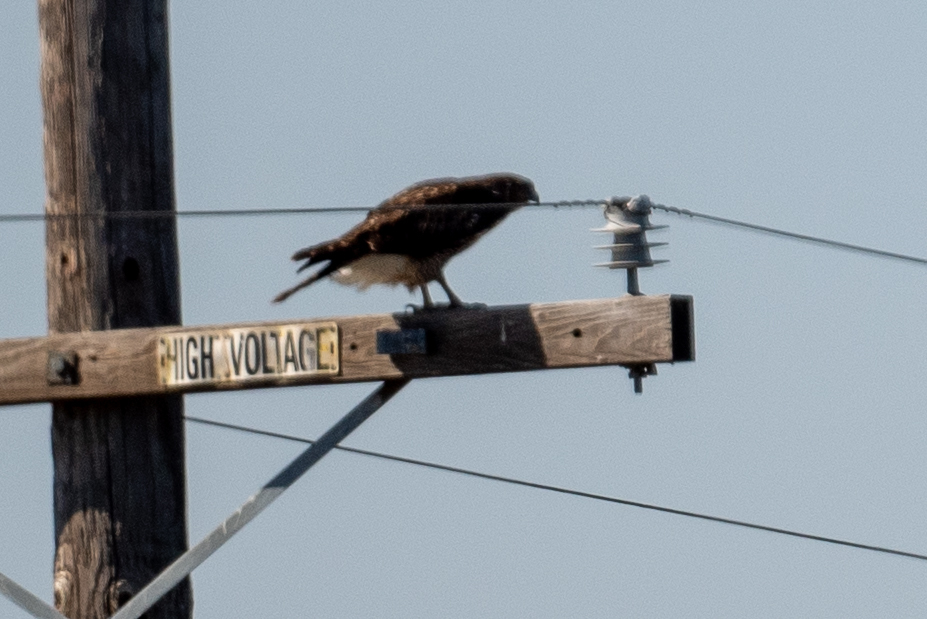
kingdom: Animalia
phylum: Chordata
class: Aves
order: Accipitriformes
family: Accipitridae
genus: Buteo
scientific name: Buteo jamaicensis
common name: Red-tailed hawk
